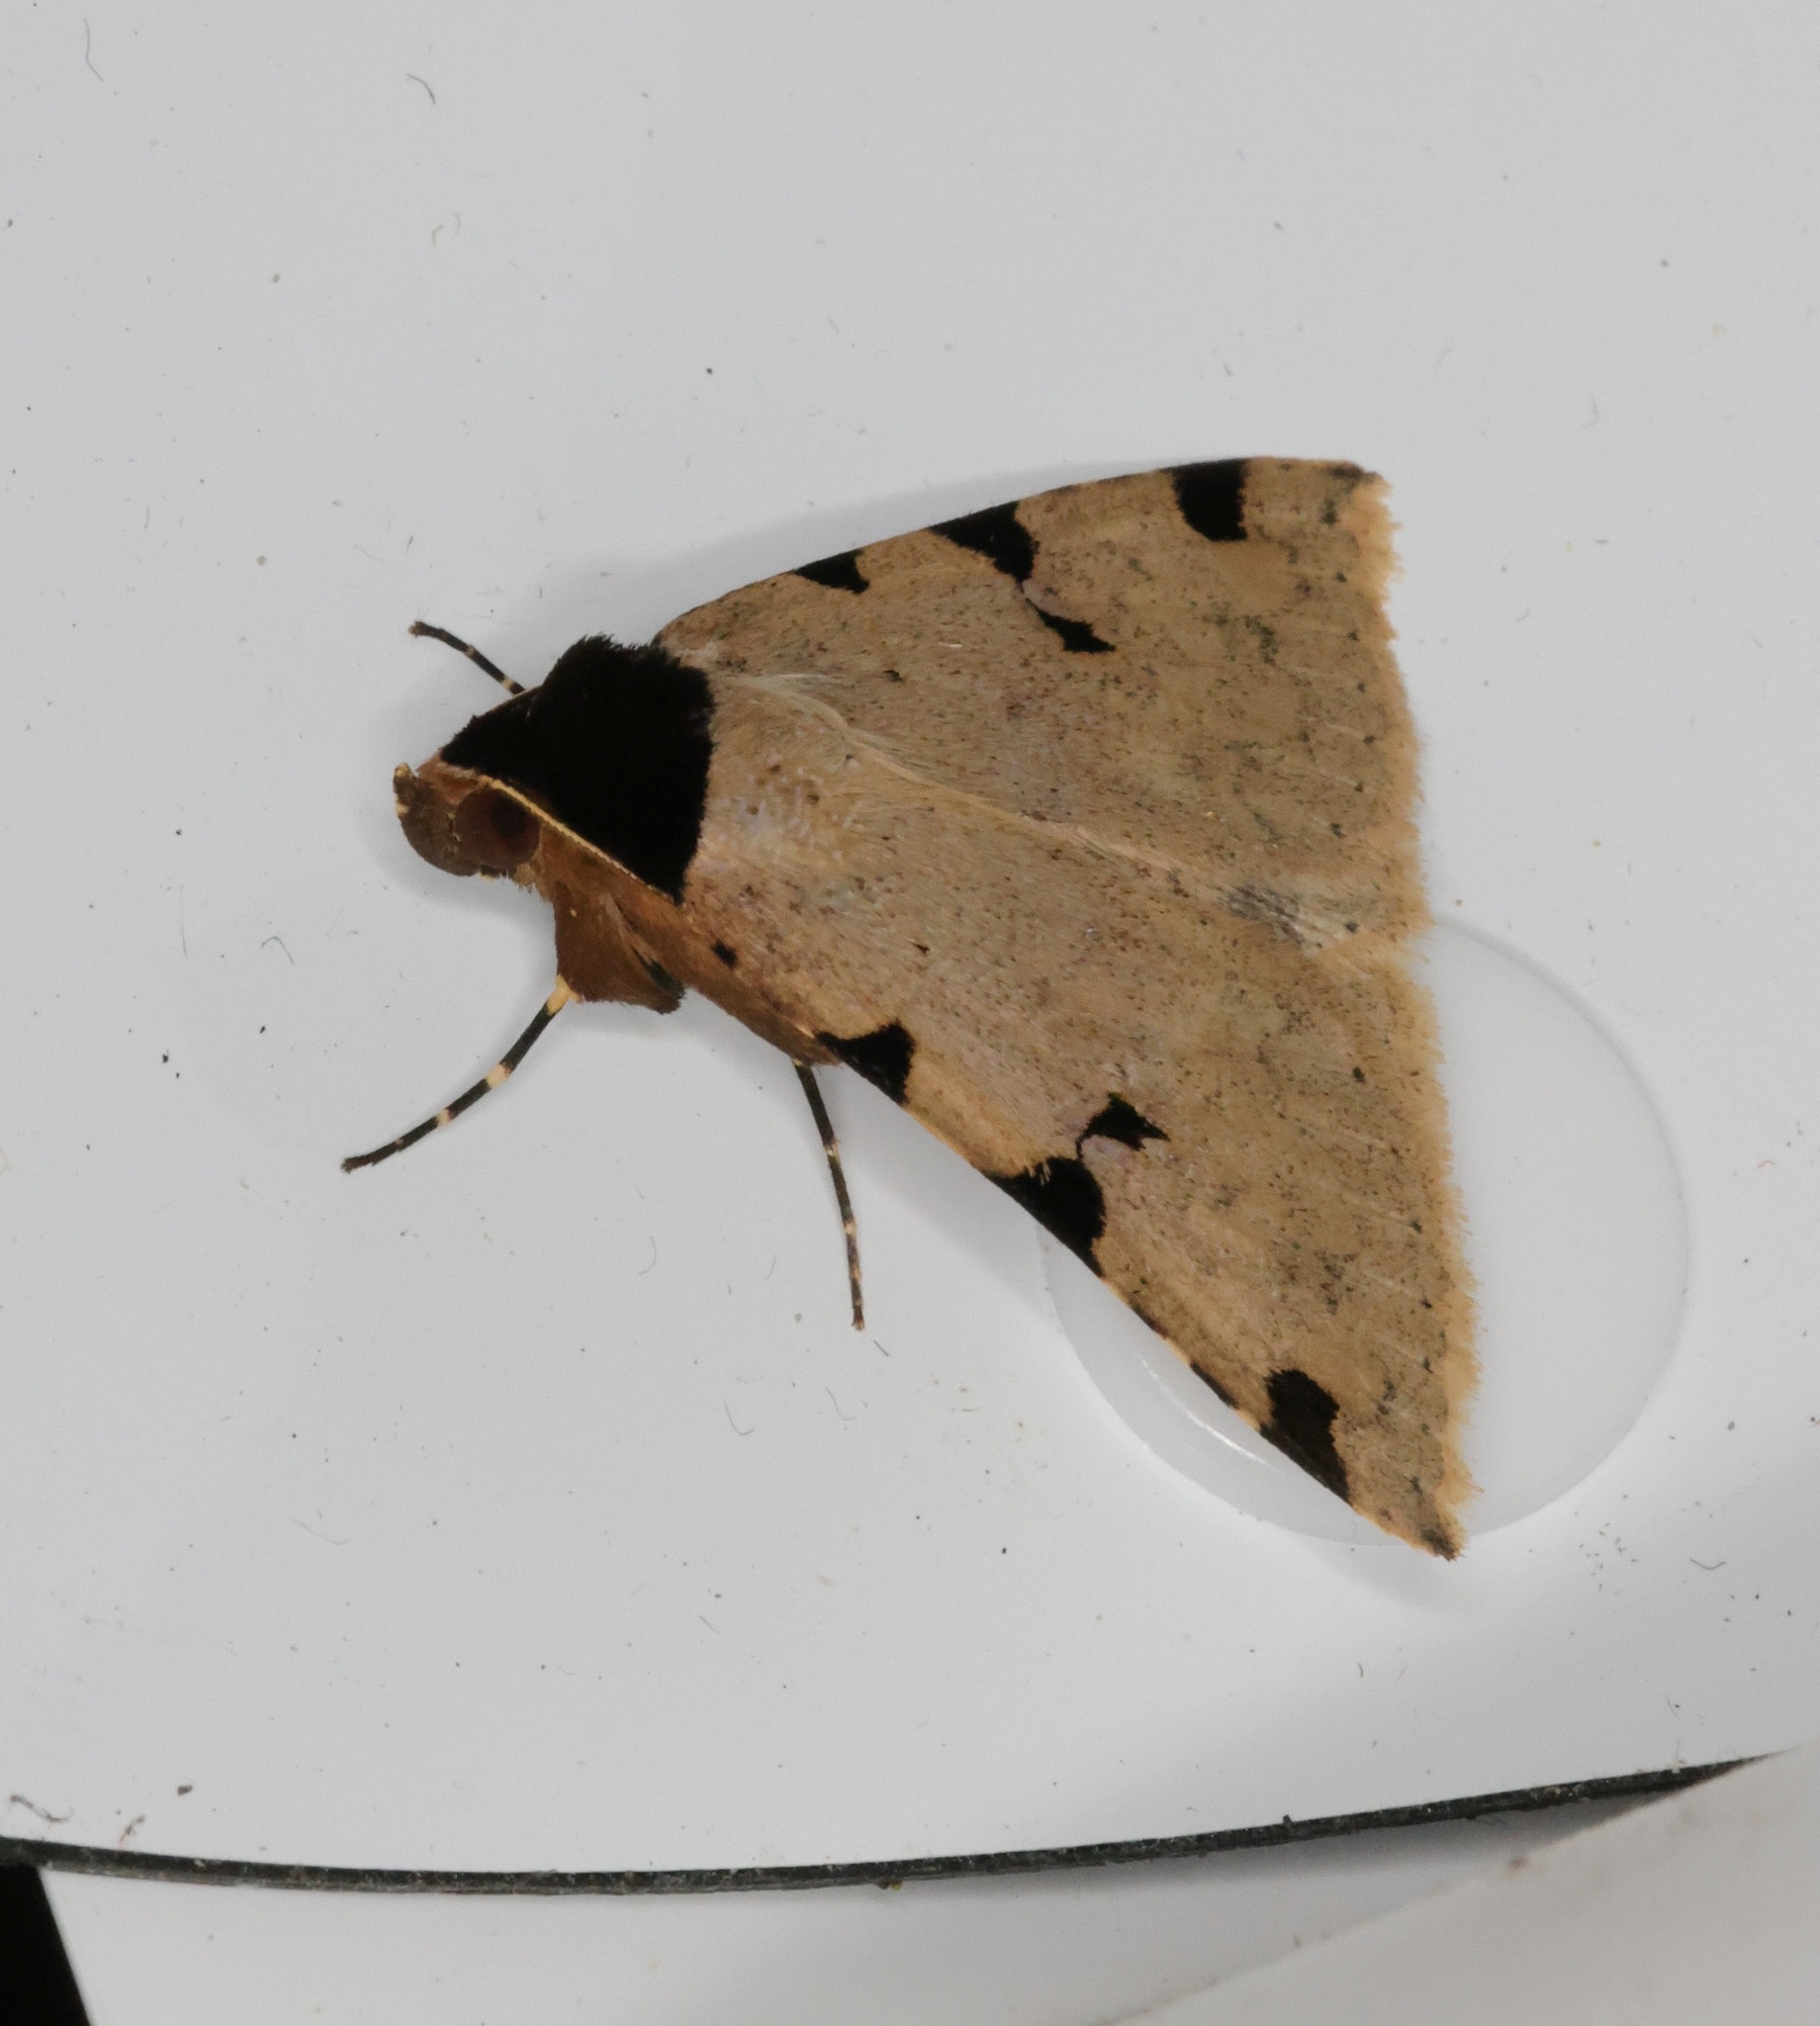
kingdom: Animalia
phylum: Arthropoda
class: Insecta
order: Lepidoptera
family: Erebidae
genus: Rema
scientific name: Rema costimacula
